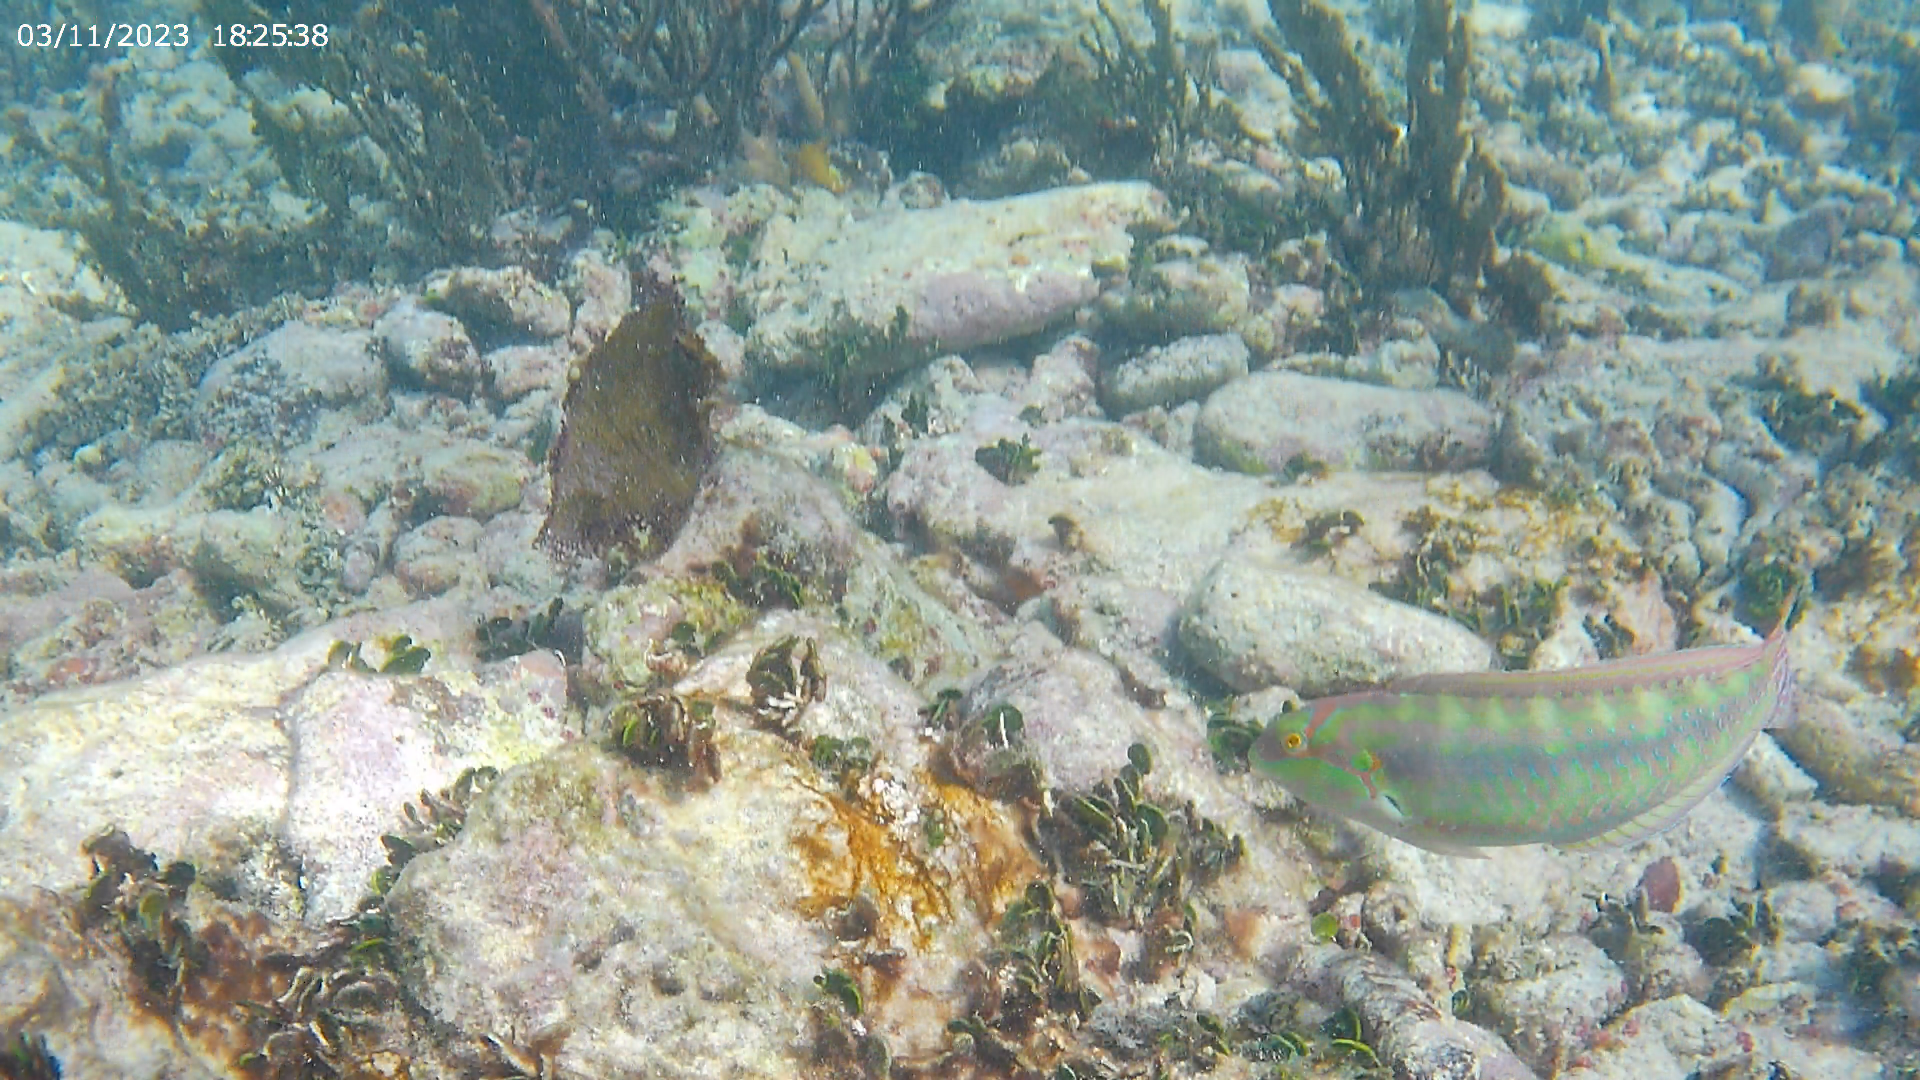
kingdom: Animalia
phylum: Chordata
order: Perciformes
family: Labridae
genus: Halichoeres
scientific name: Halichoeres bivittatus
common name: Slippery dick
